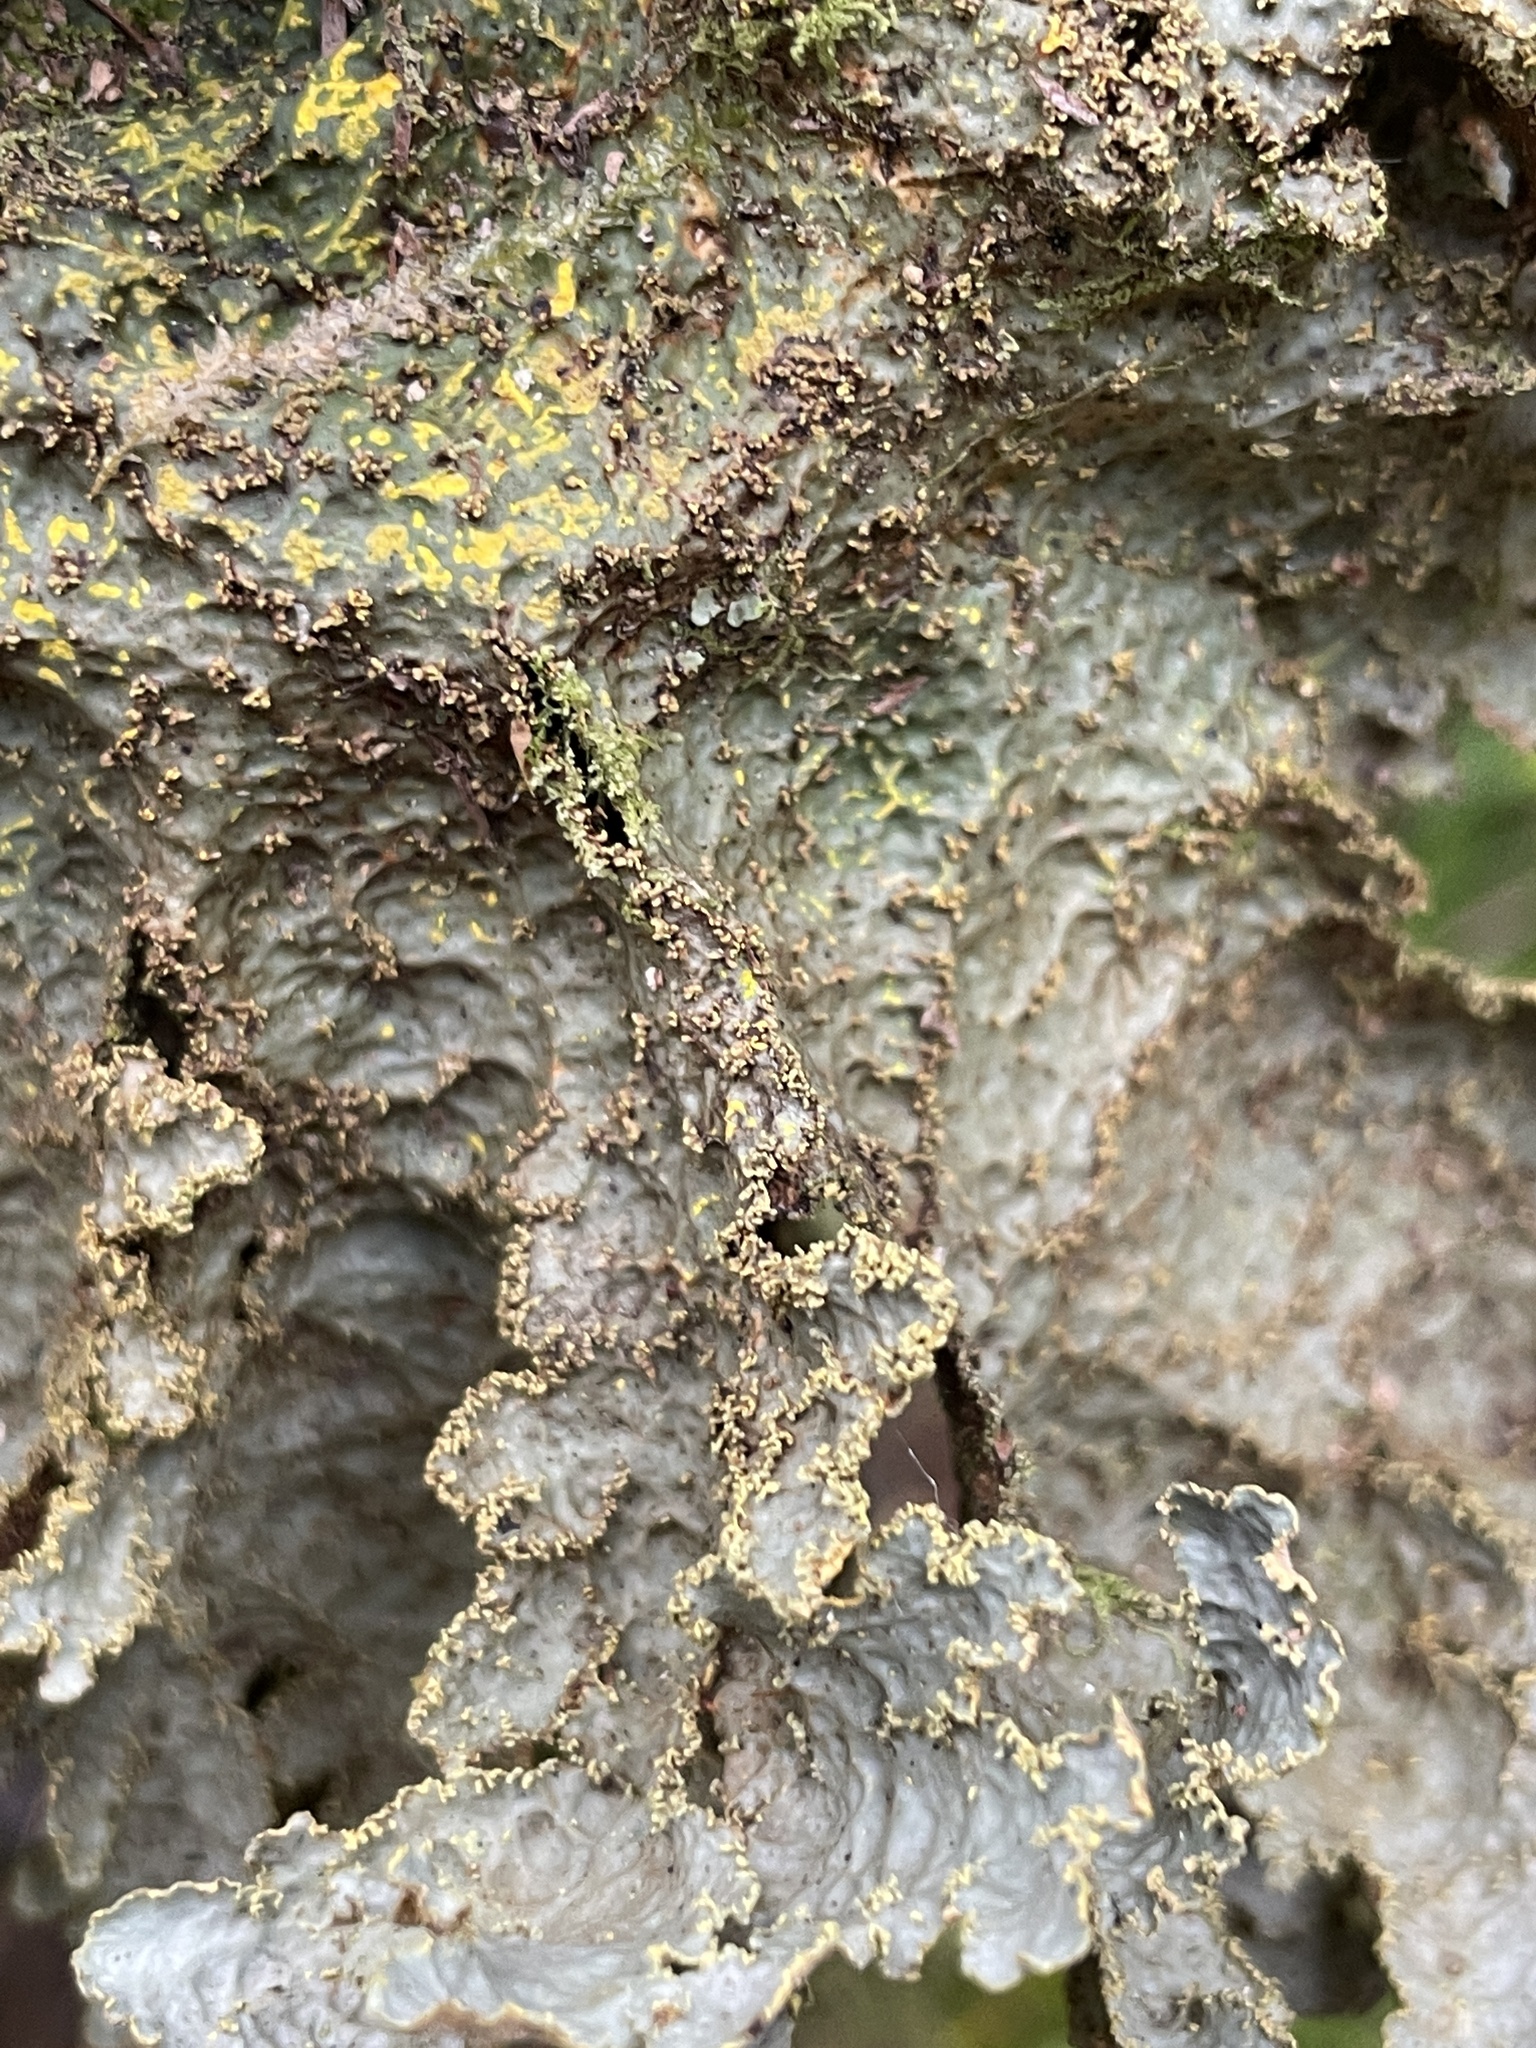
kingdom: Fungi
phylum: Ascomycota
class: Lecanoromycetes
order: Peltigerales
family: Lobariaceae
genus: Yarrumia
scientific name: Yarrumia colensoi
